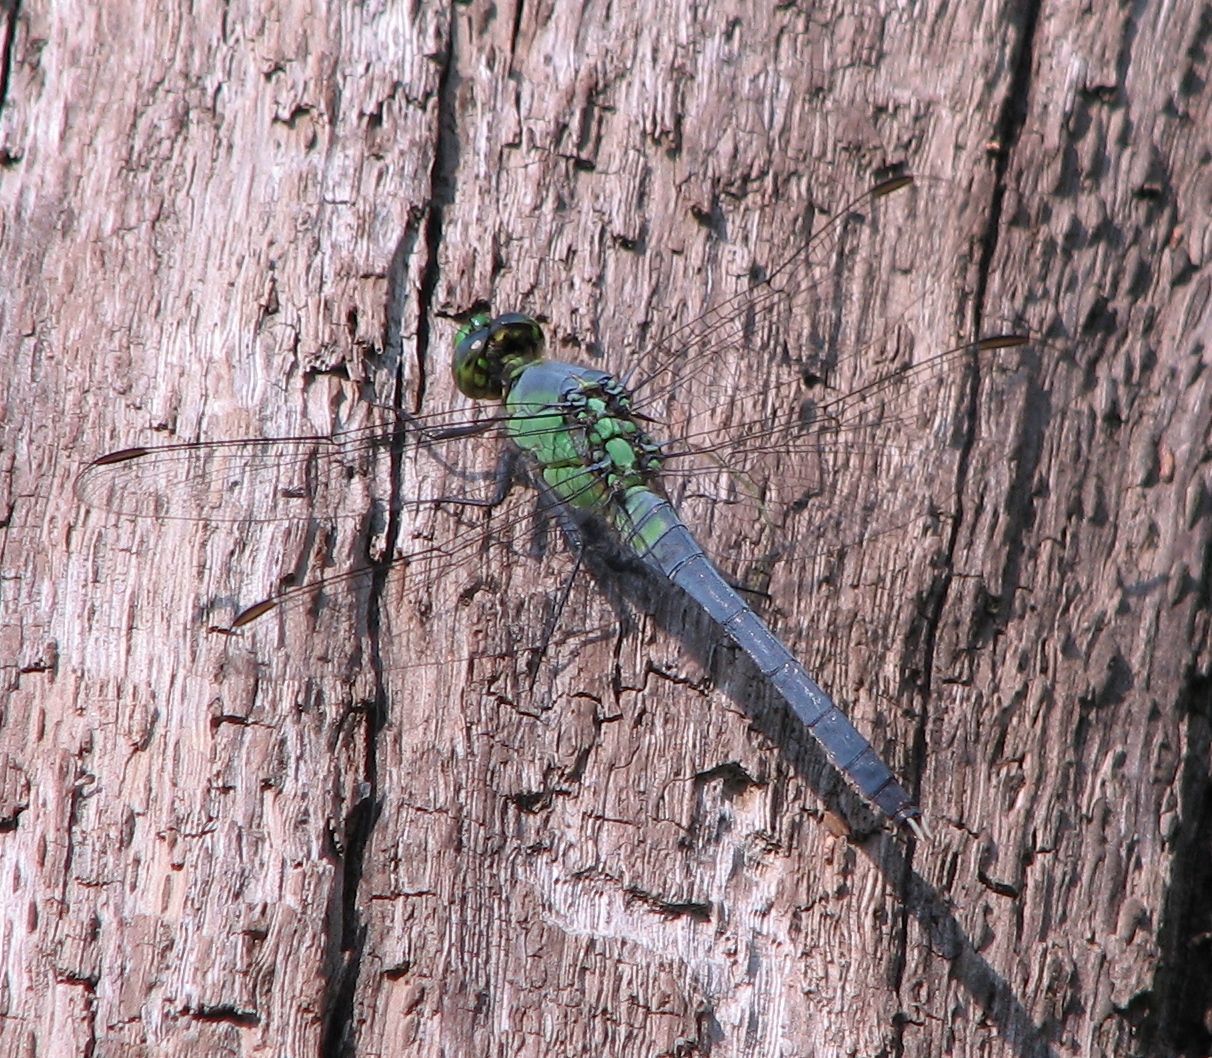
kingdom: Animalia
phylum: Arthropoda
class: Insecta
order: Odonata
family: Libellulidae
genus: Erythemis
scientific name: Erythemis simplicicollis
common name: Eastern pondhawk
